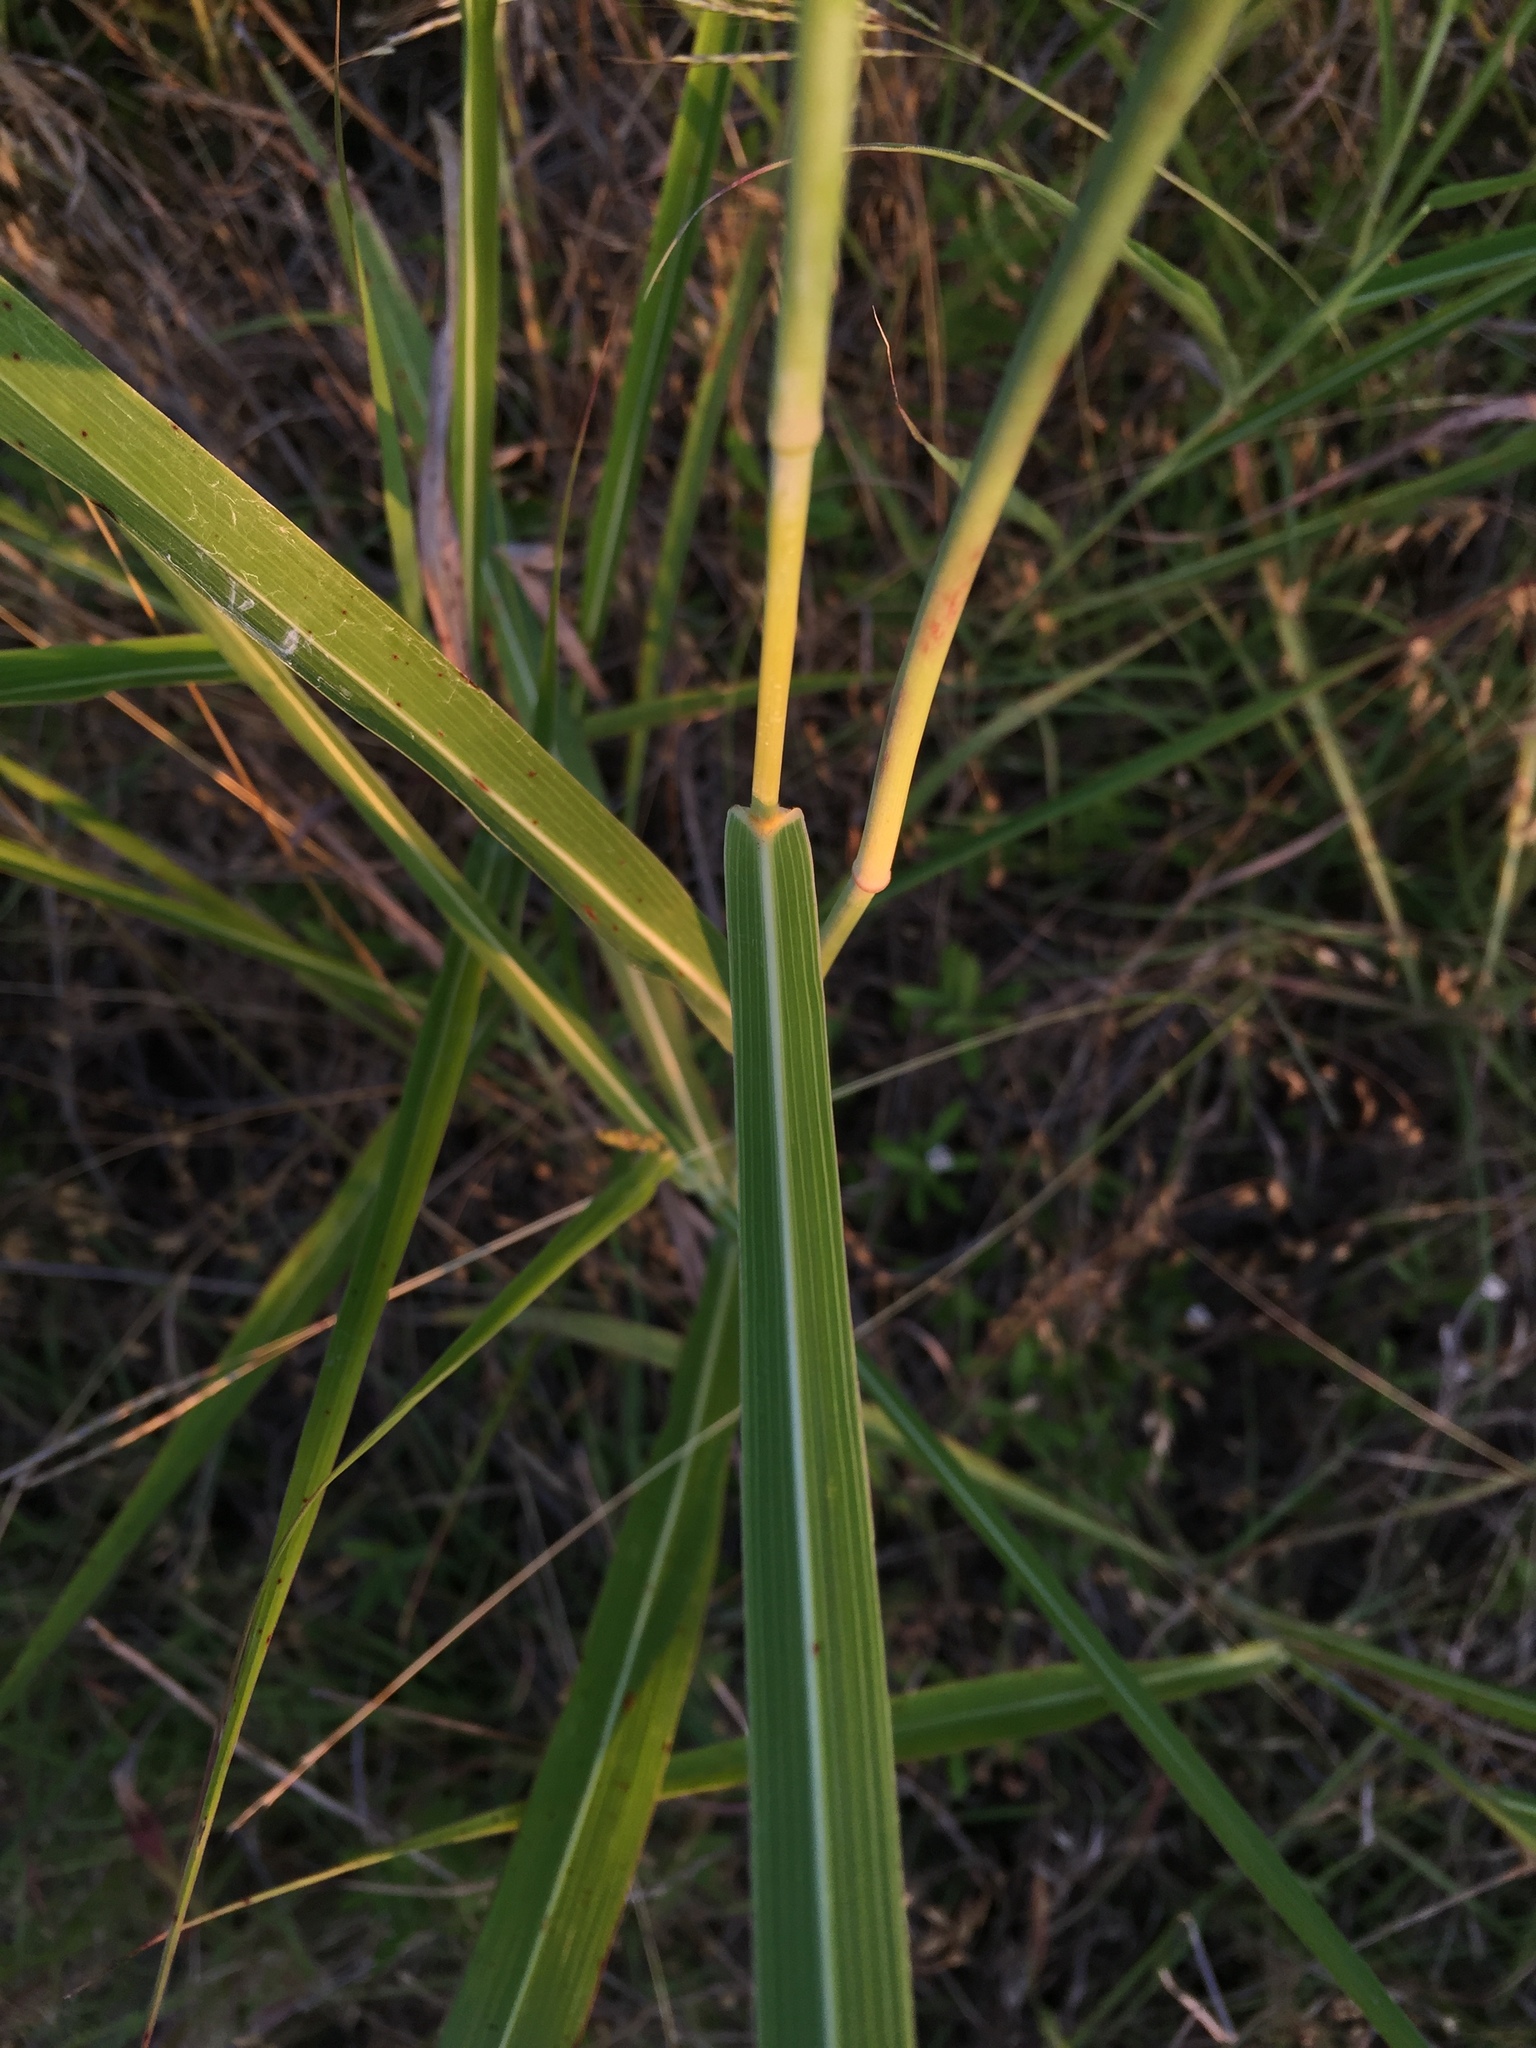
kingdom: Plantae
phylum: Tracheophyta
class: Liliopsida
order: Poales
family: Poaceae
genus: Sorghum
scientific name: Sorghum halepense
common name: Johnson-grass
